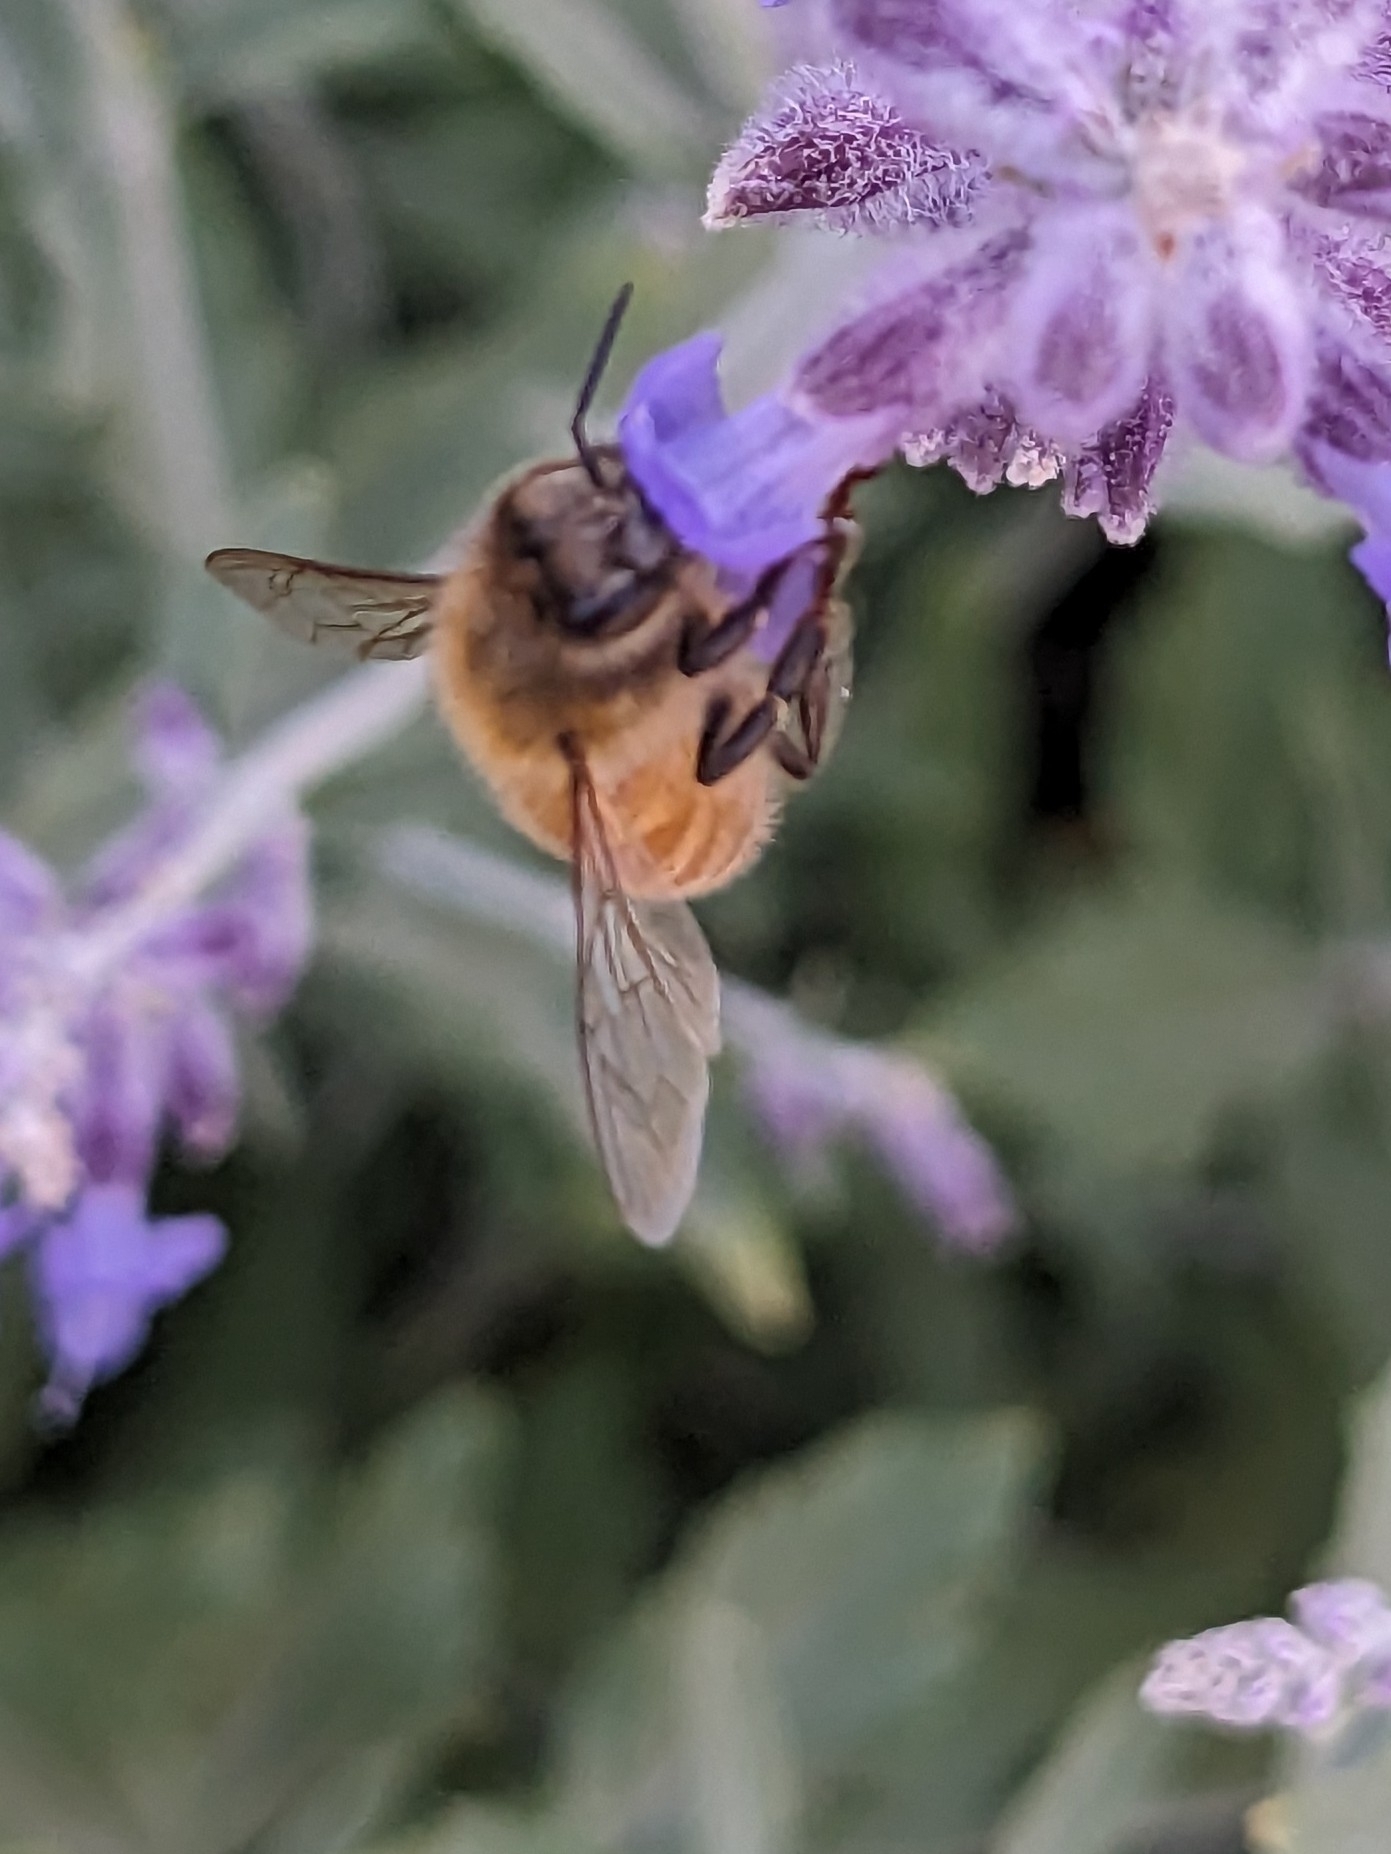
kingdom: Animalia
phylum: Arthropoda
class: Insecta
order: Hymenoptera
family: Apidae
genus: Apis
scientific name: Apis mellifera
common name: Honey bee
